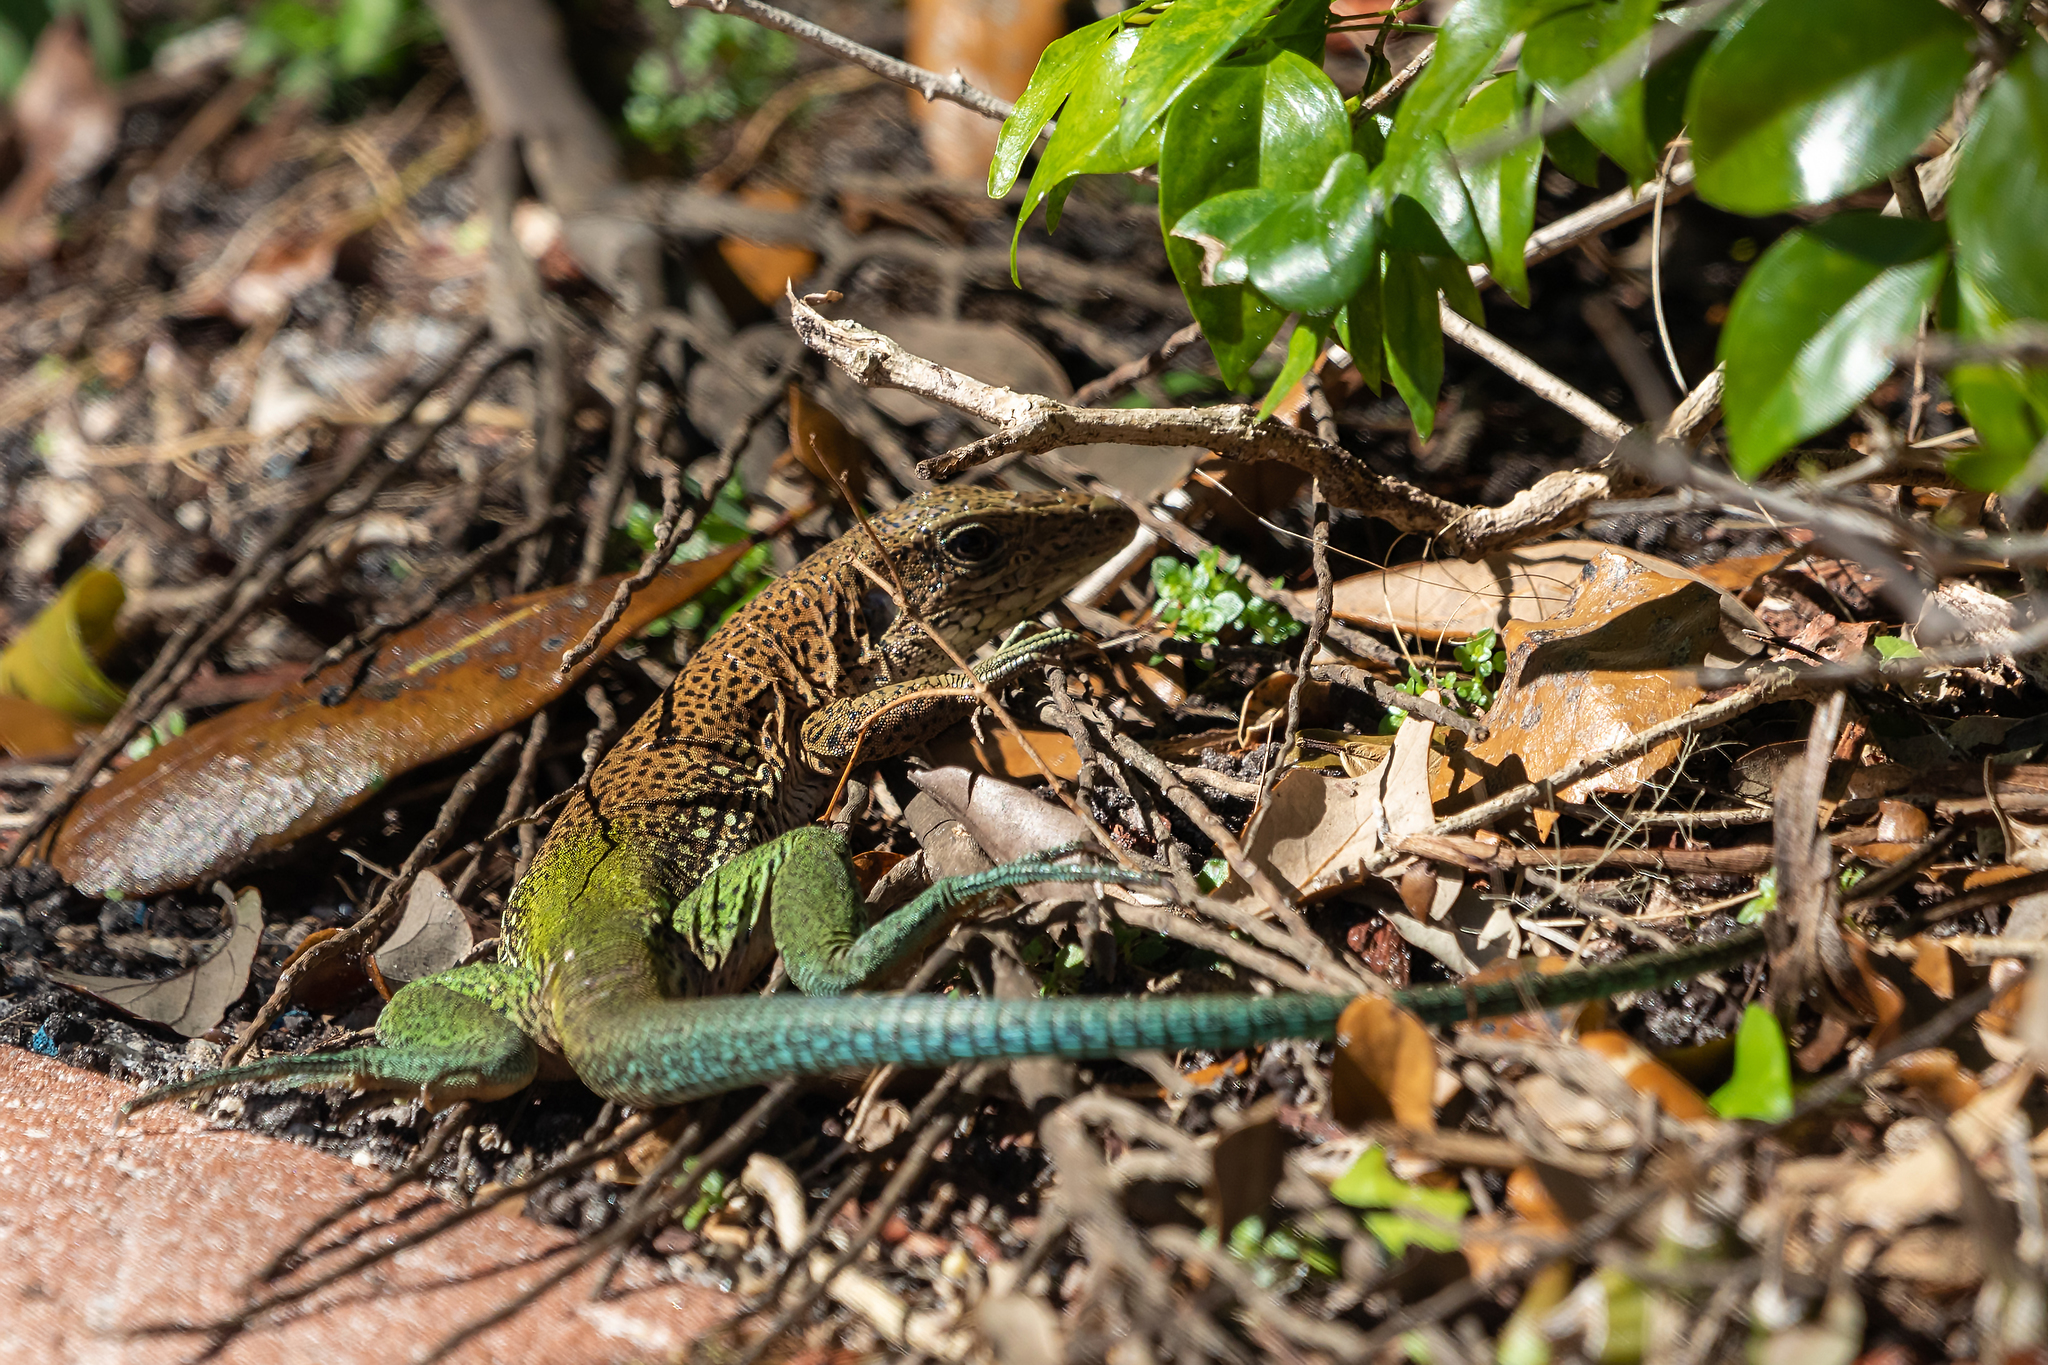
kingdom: Animalia
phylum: Chordata
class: Squamata
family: Teiidae
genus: Ameiva
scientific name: Ameiva ameiva
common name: Giant ameiva
